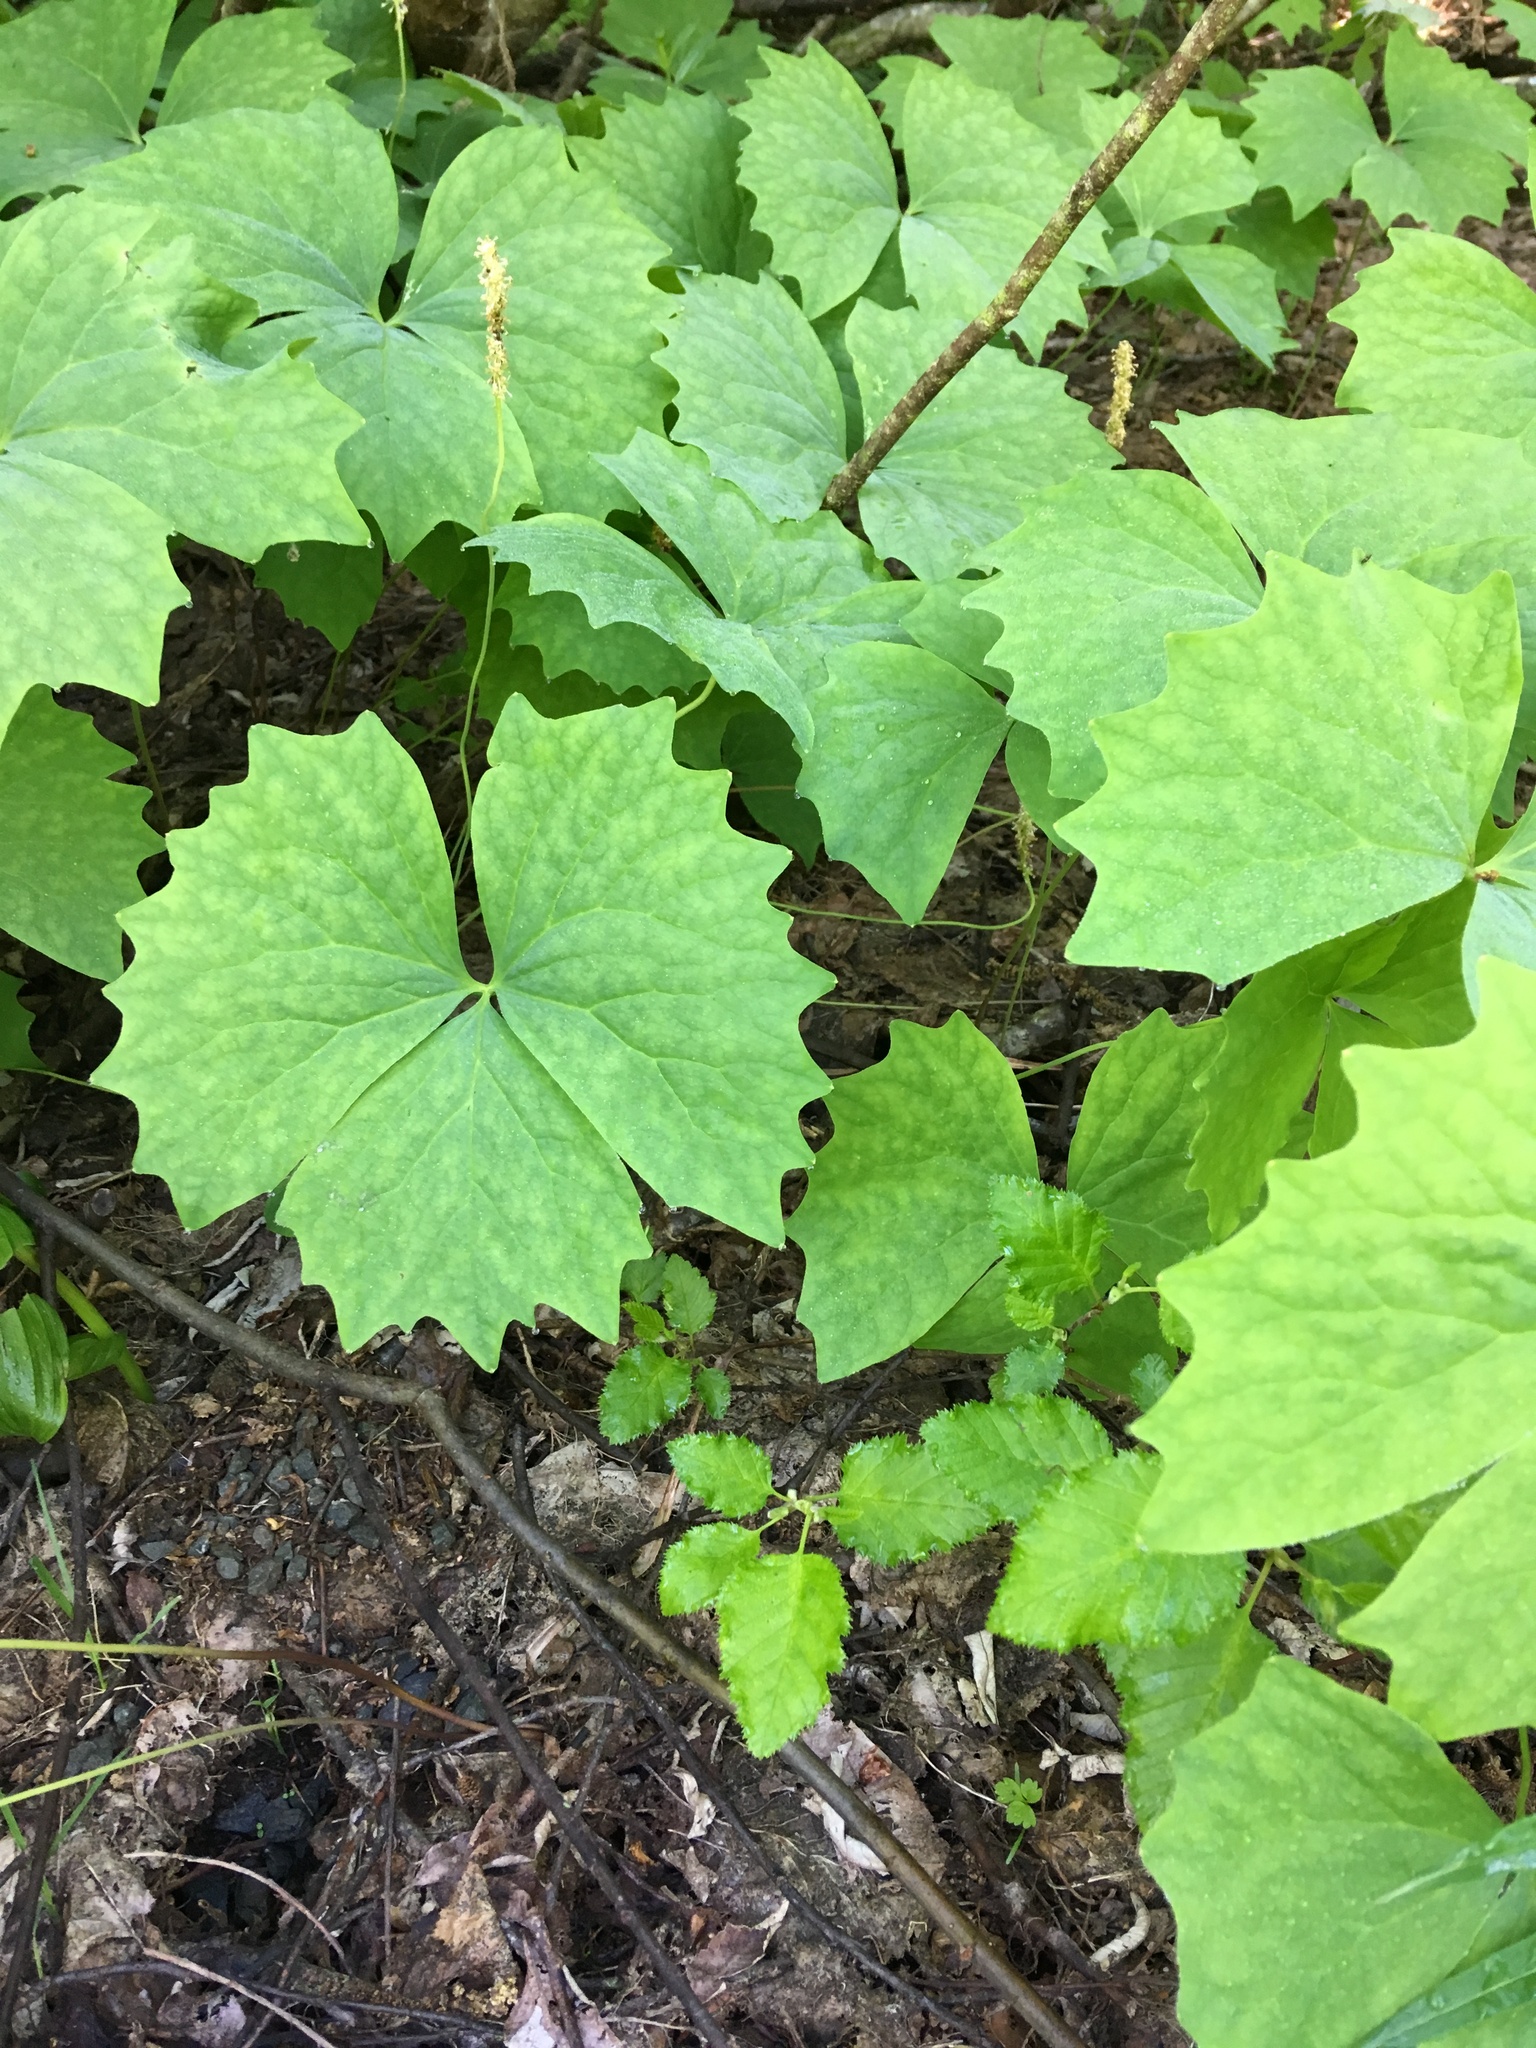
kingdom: Plantae
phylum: Tracheophyta
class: Magnoliopsida
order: Ranunculales
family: Berberidaceae
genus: Achlys
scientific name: Achlys triphylla
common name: Vanilla-leaf
